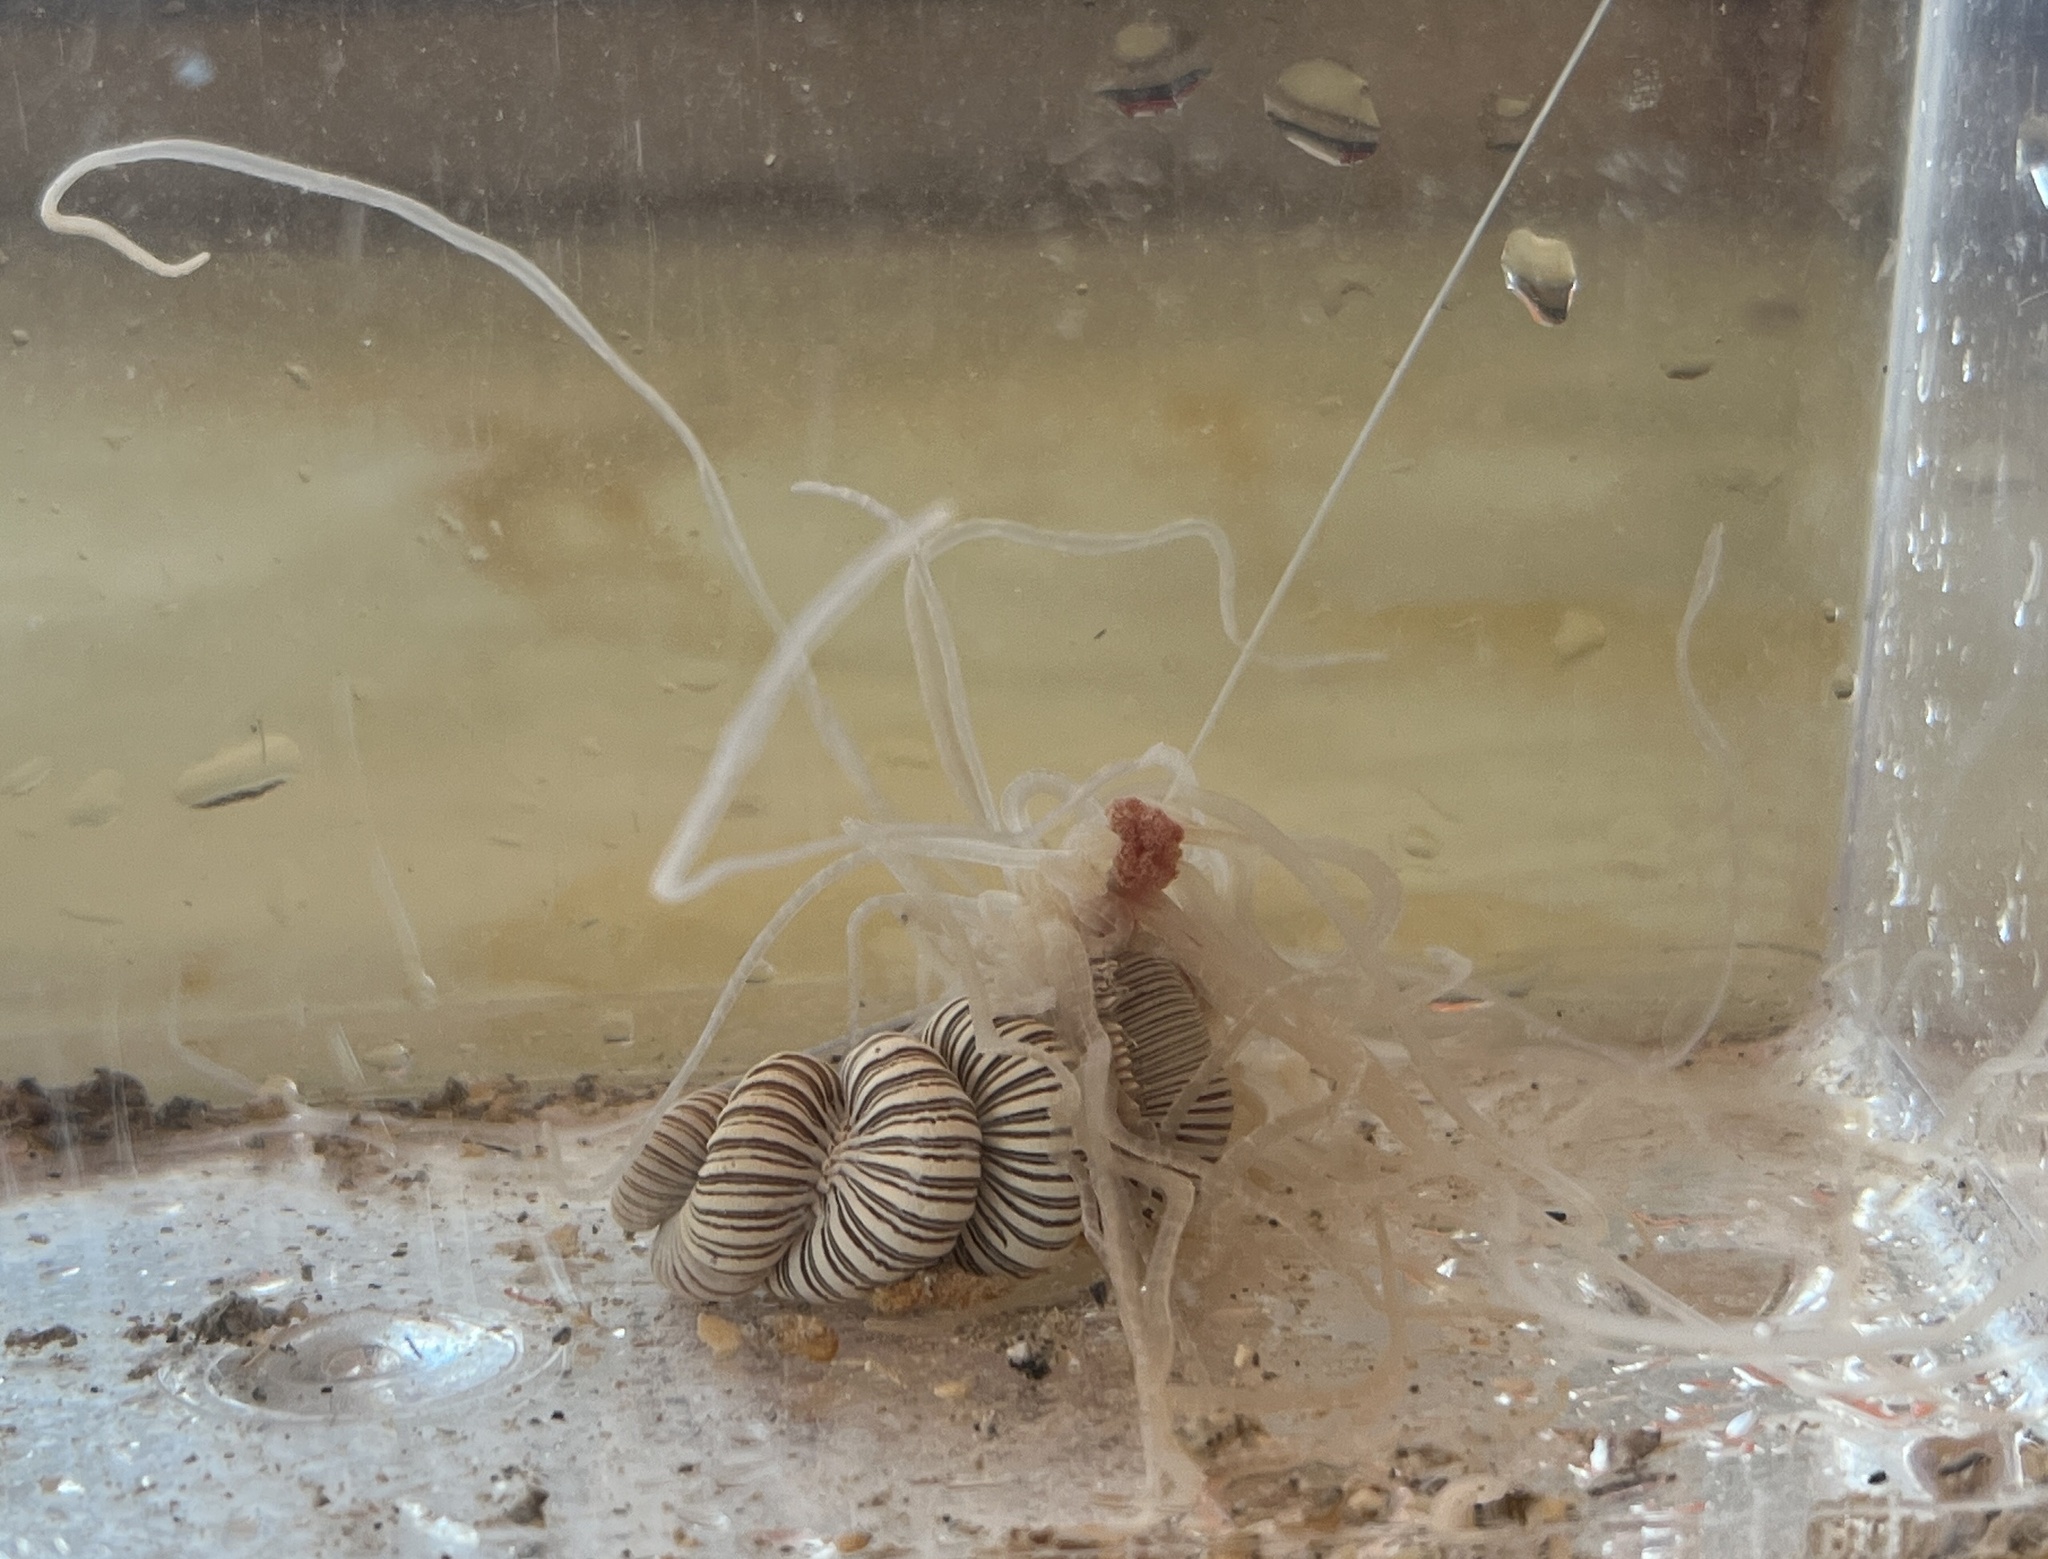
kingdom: Animalia
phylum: Annelida
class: Polychaeta
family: Terebellidae
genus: Eupolymnia
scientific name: Eupolymnia crassicornis
